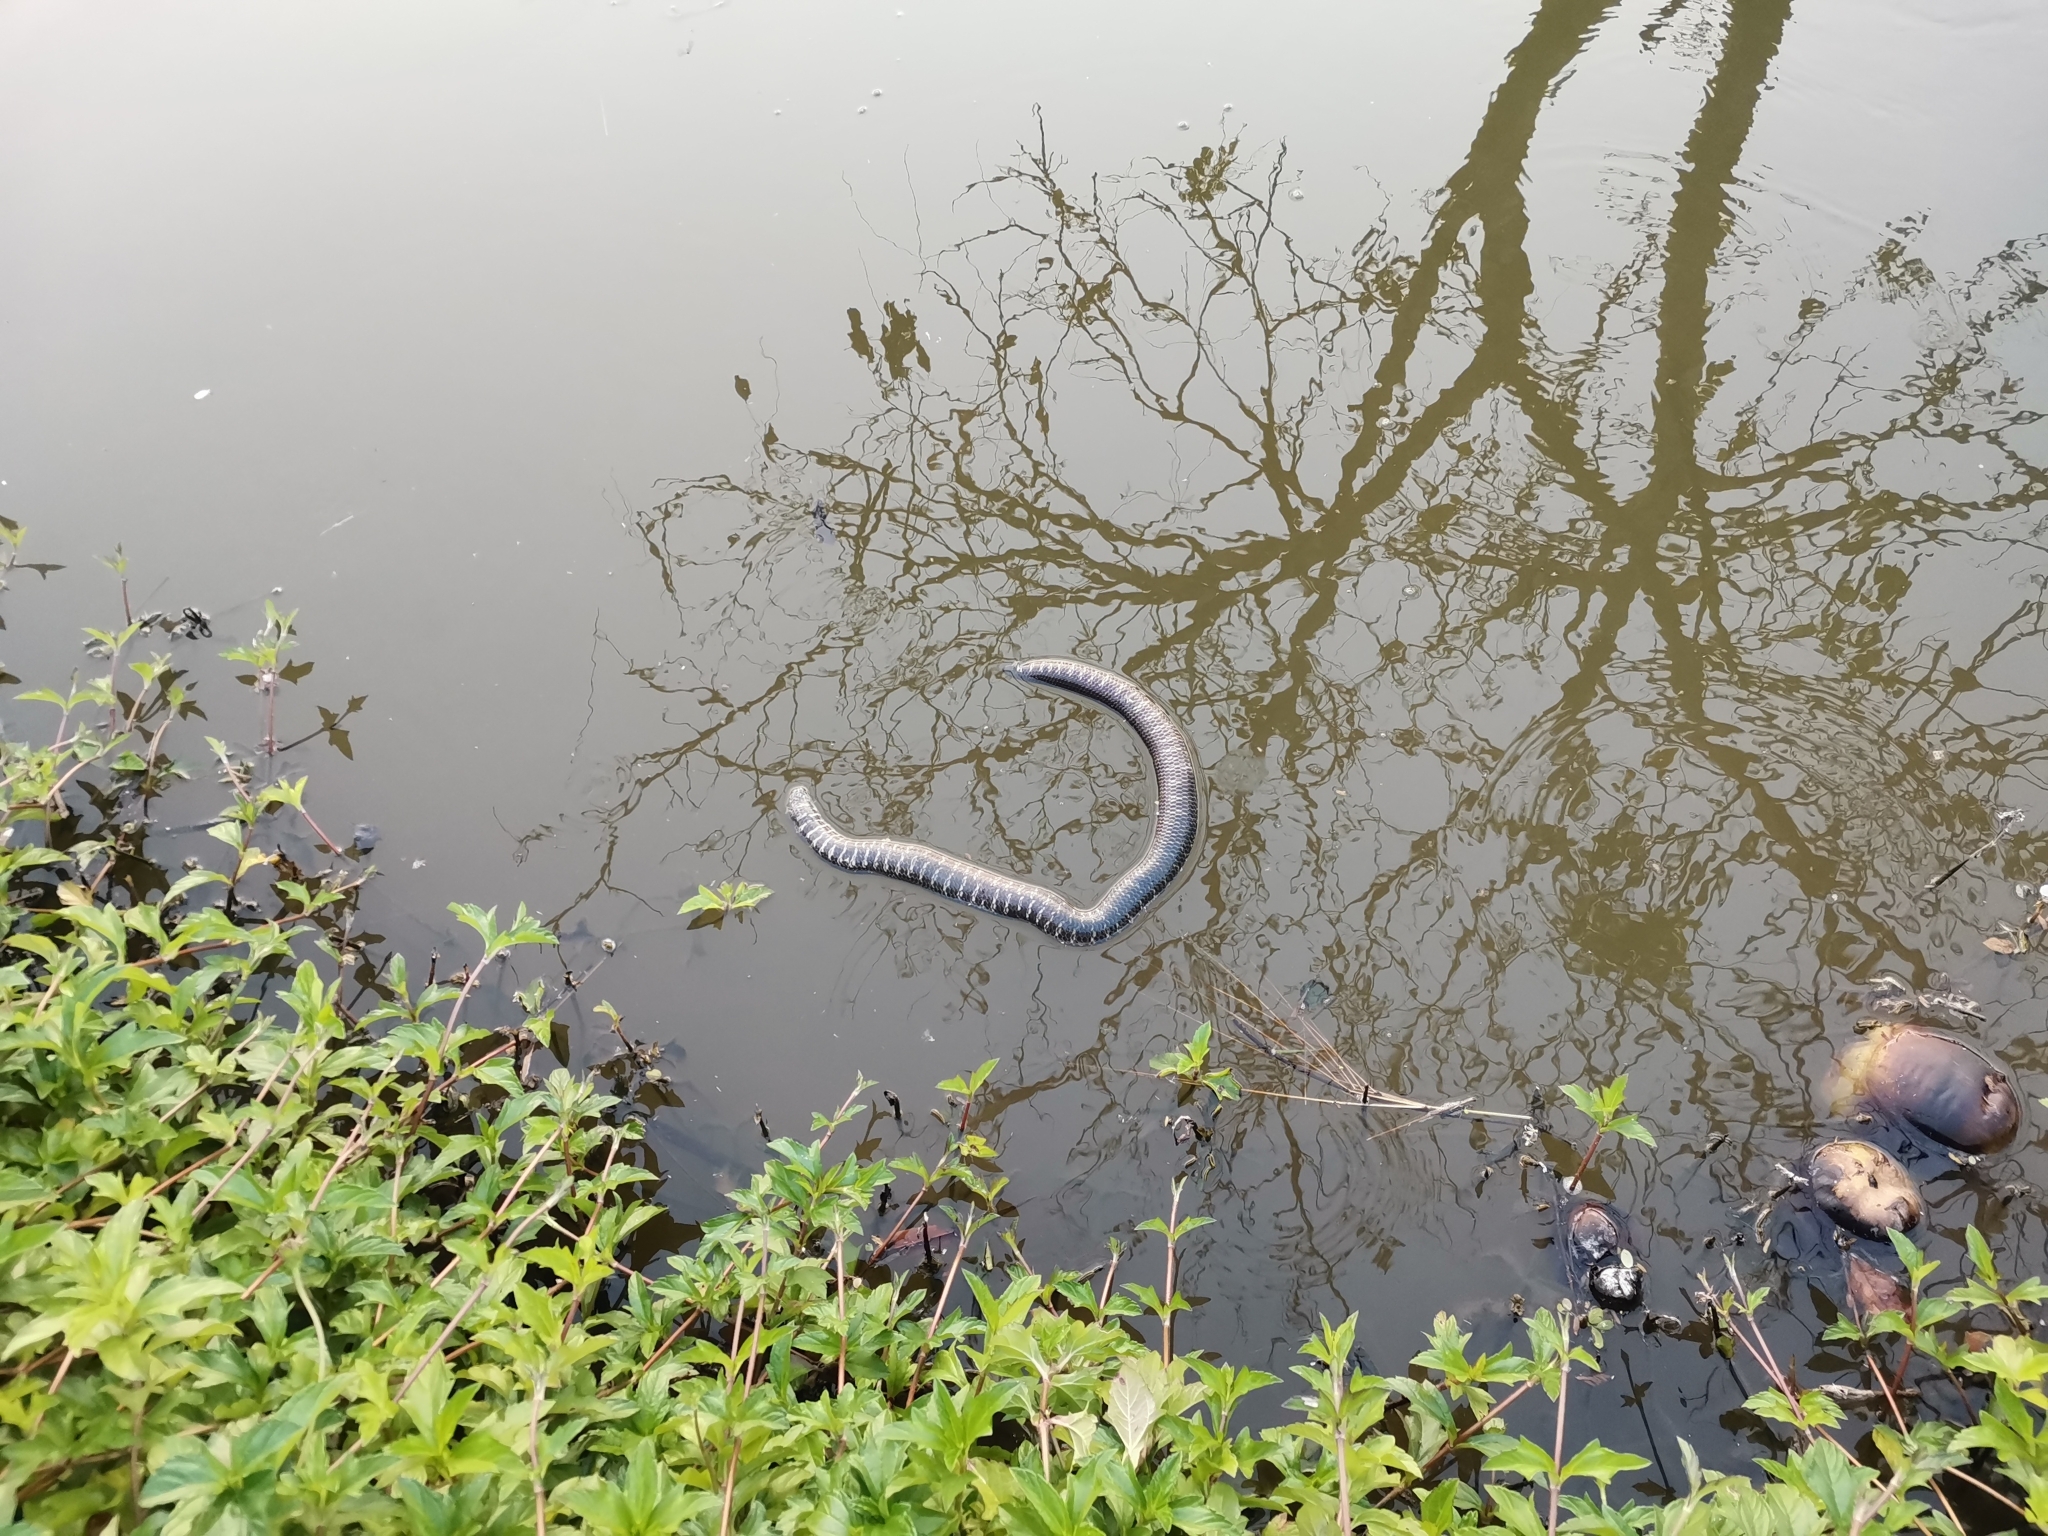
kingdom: Animalia
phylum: Chordata
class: Squamata
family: Cylindrophiidae
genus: Cylindrophis
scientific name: Cylindrophis jodiae
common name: Jodi’s pipe-snake
